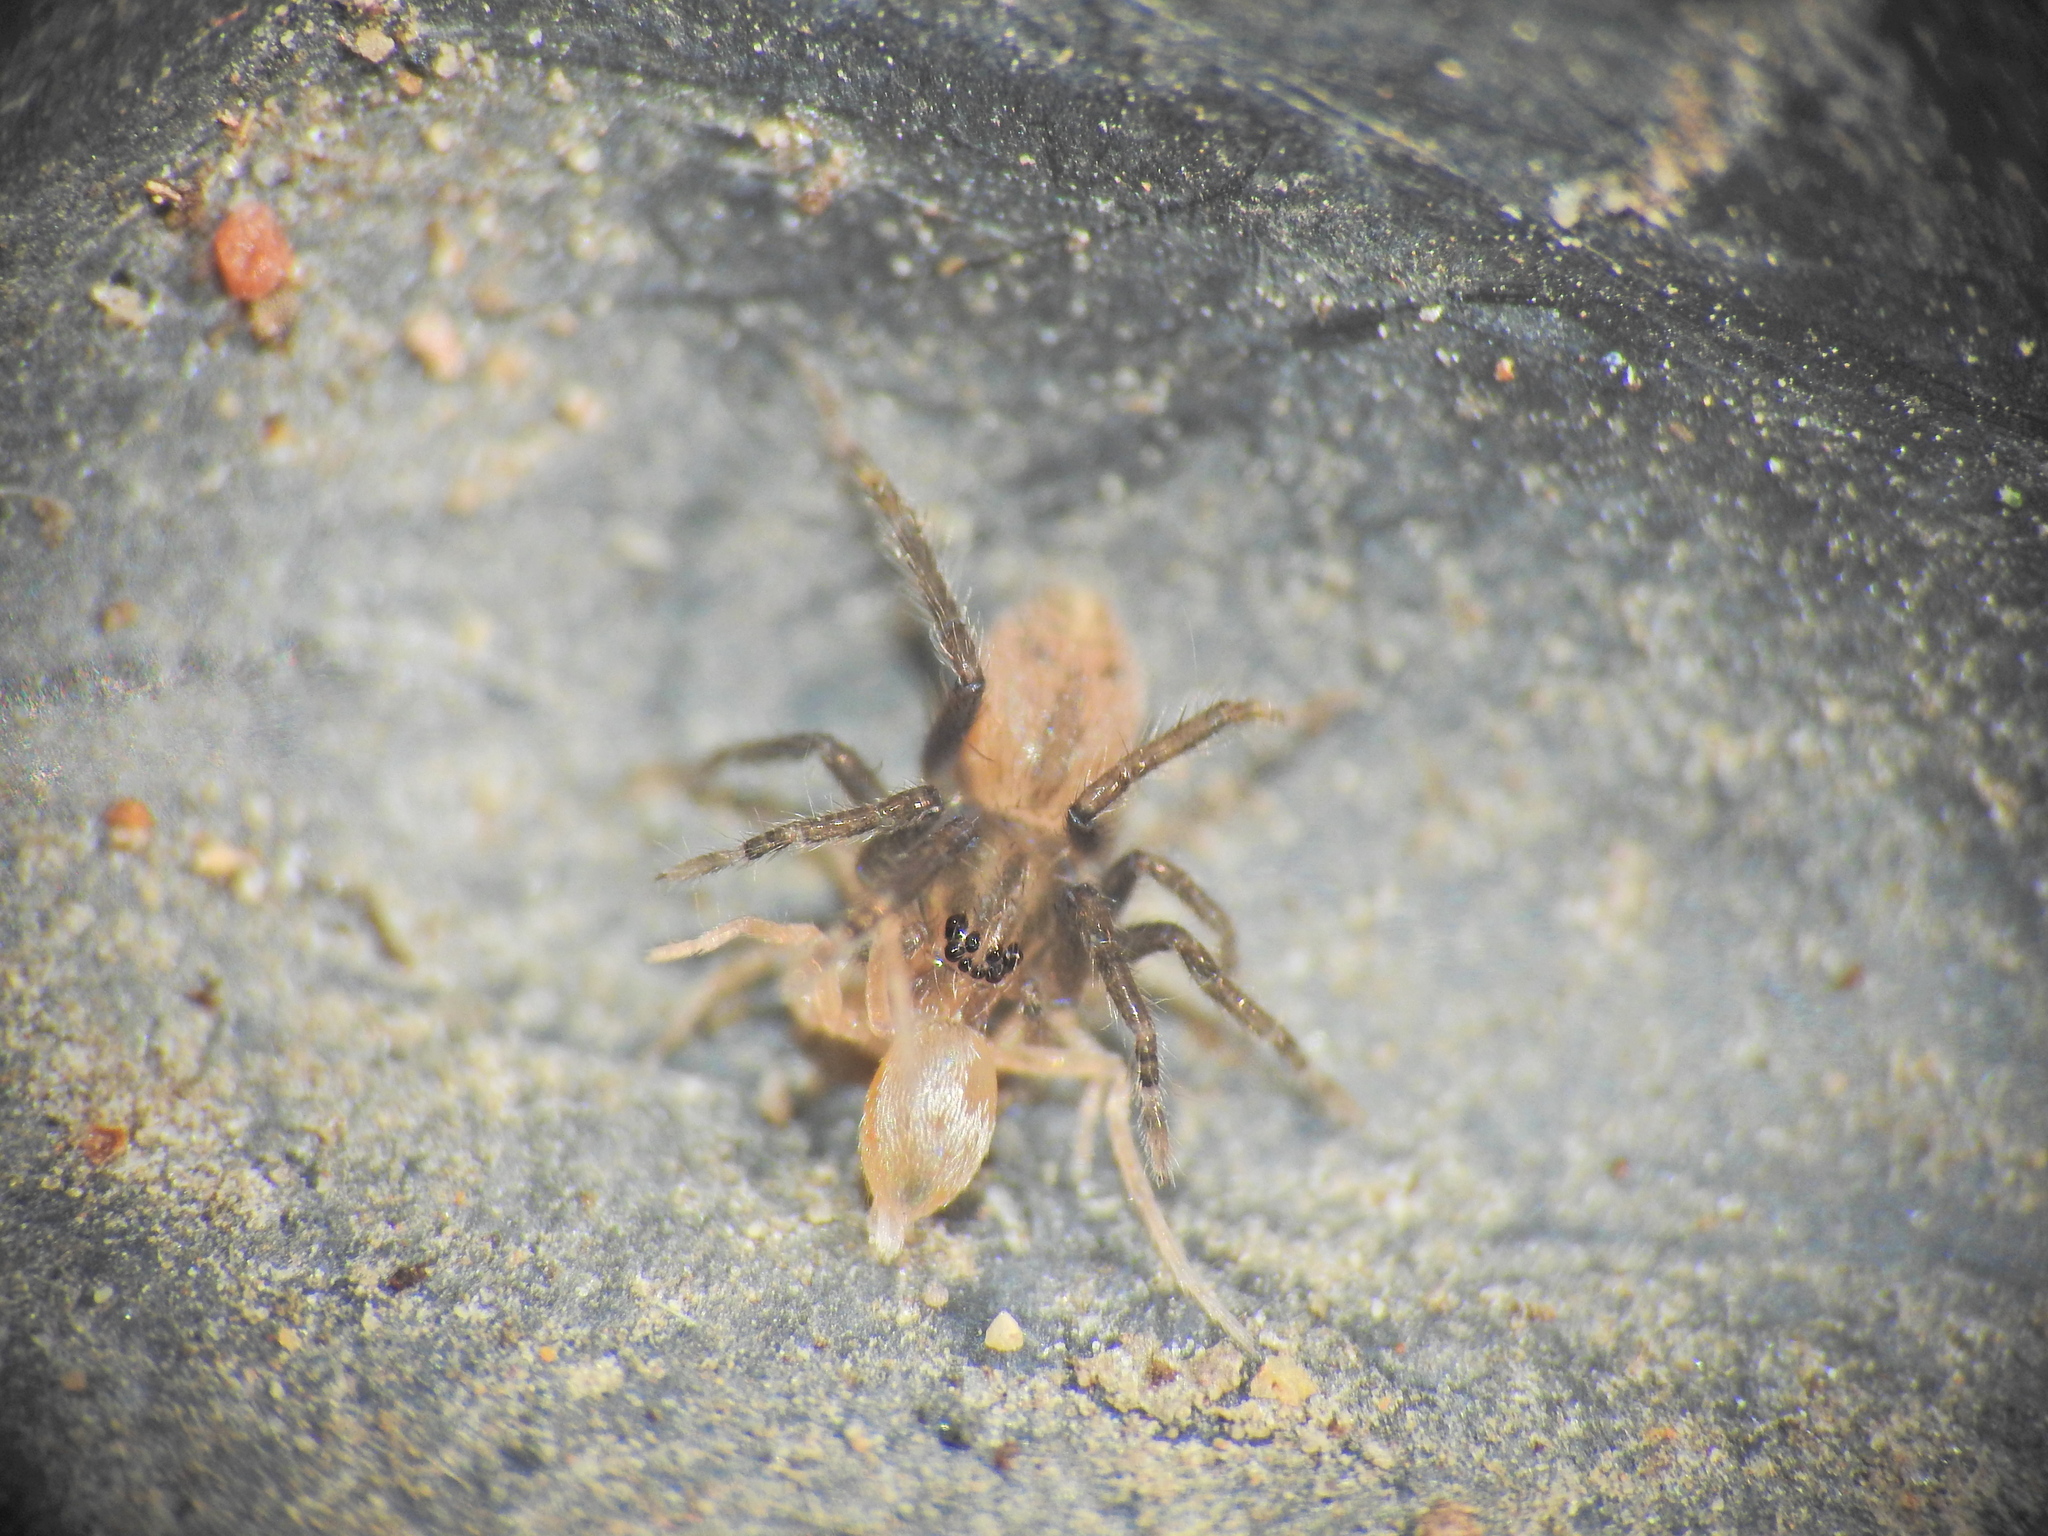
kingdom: Animalia
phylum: Arthropoda
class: Arachnida
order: Araneae
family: Miturgidae
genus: Nuliodon
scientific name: Nuliodon fishburni
